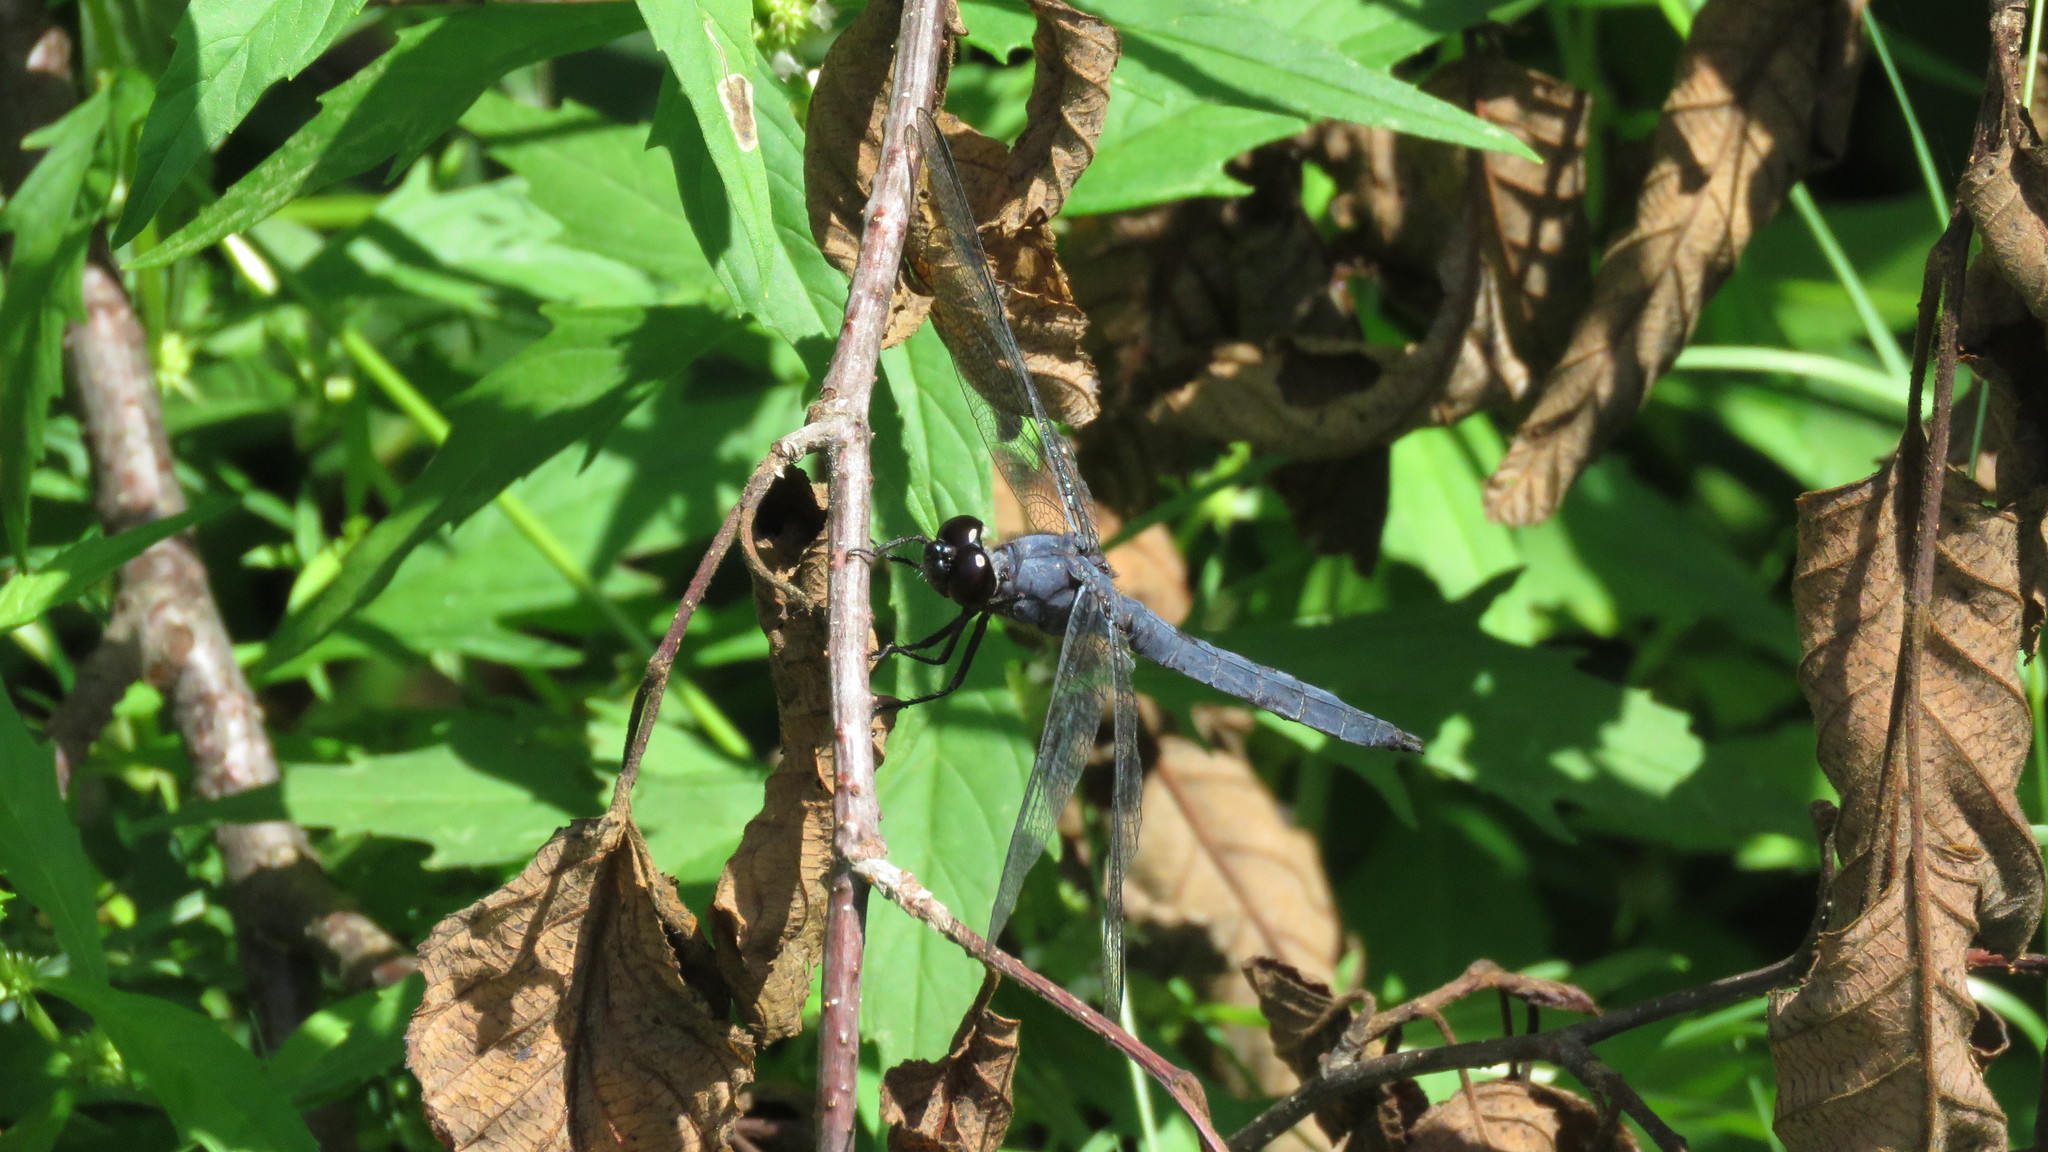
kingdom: Animalia
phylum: Arthropoda
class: Insecta
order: Odonata
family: Libellulidae
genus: Libellula
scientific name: Libellula incesta
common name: Slaty skimmer
